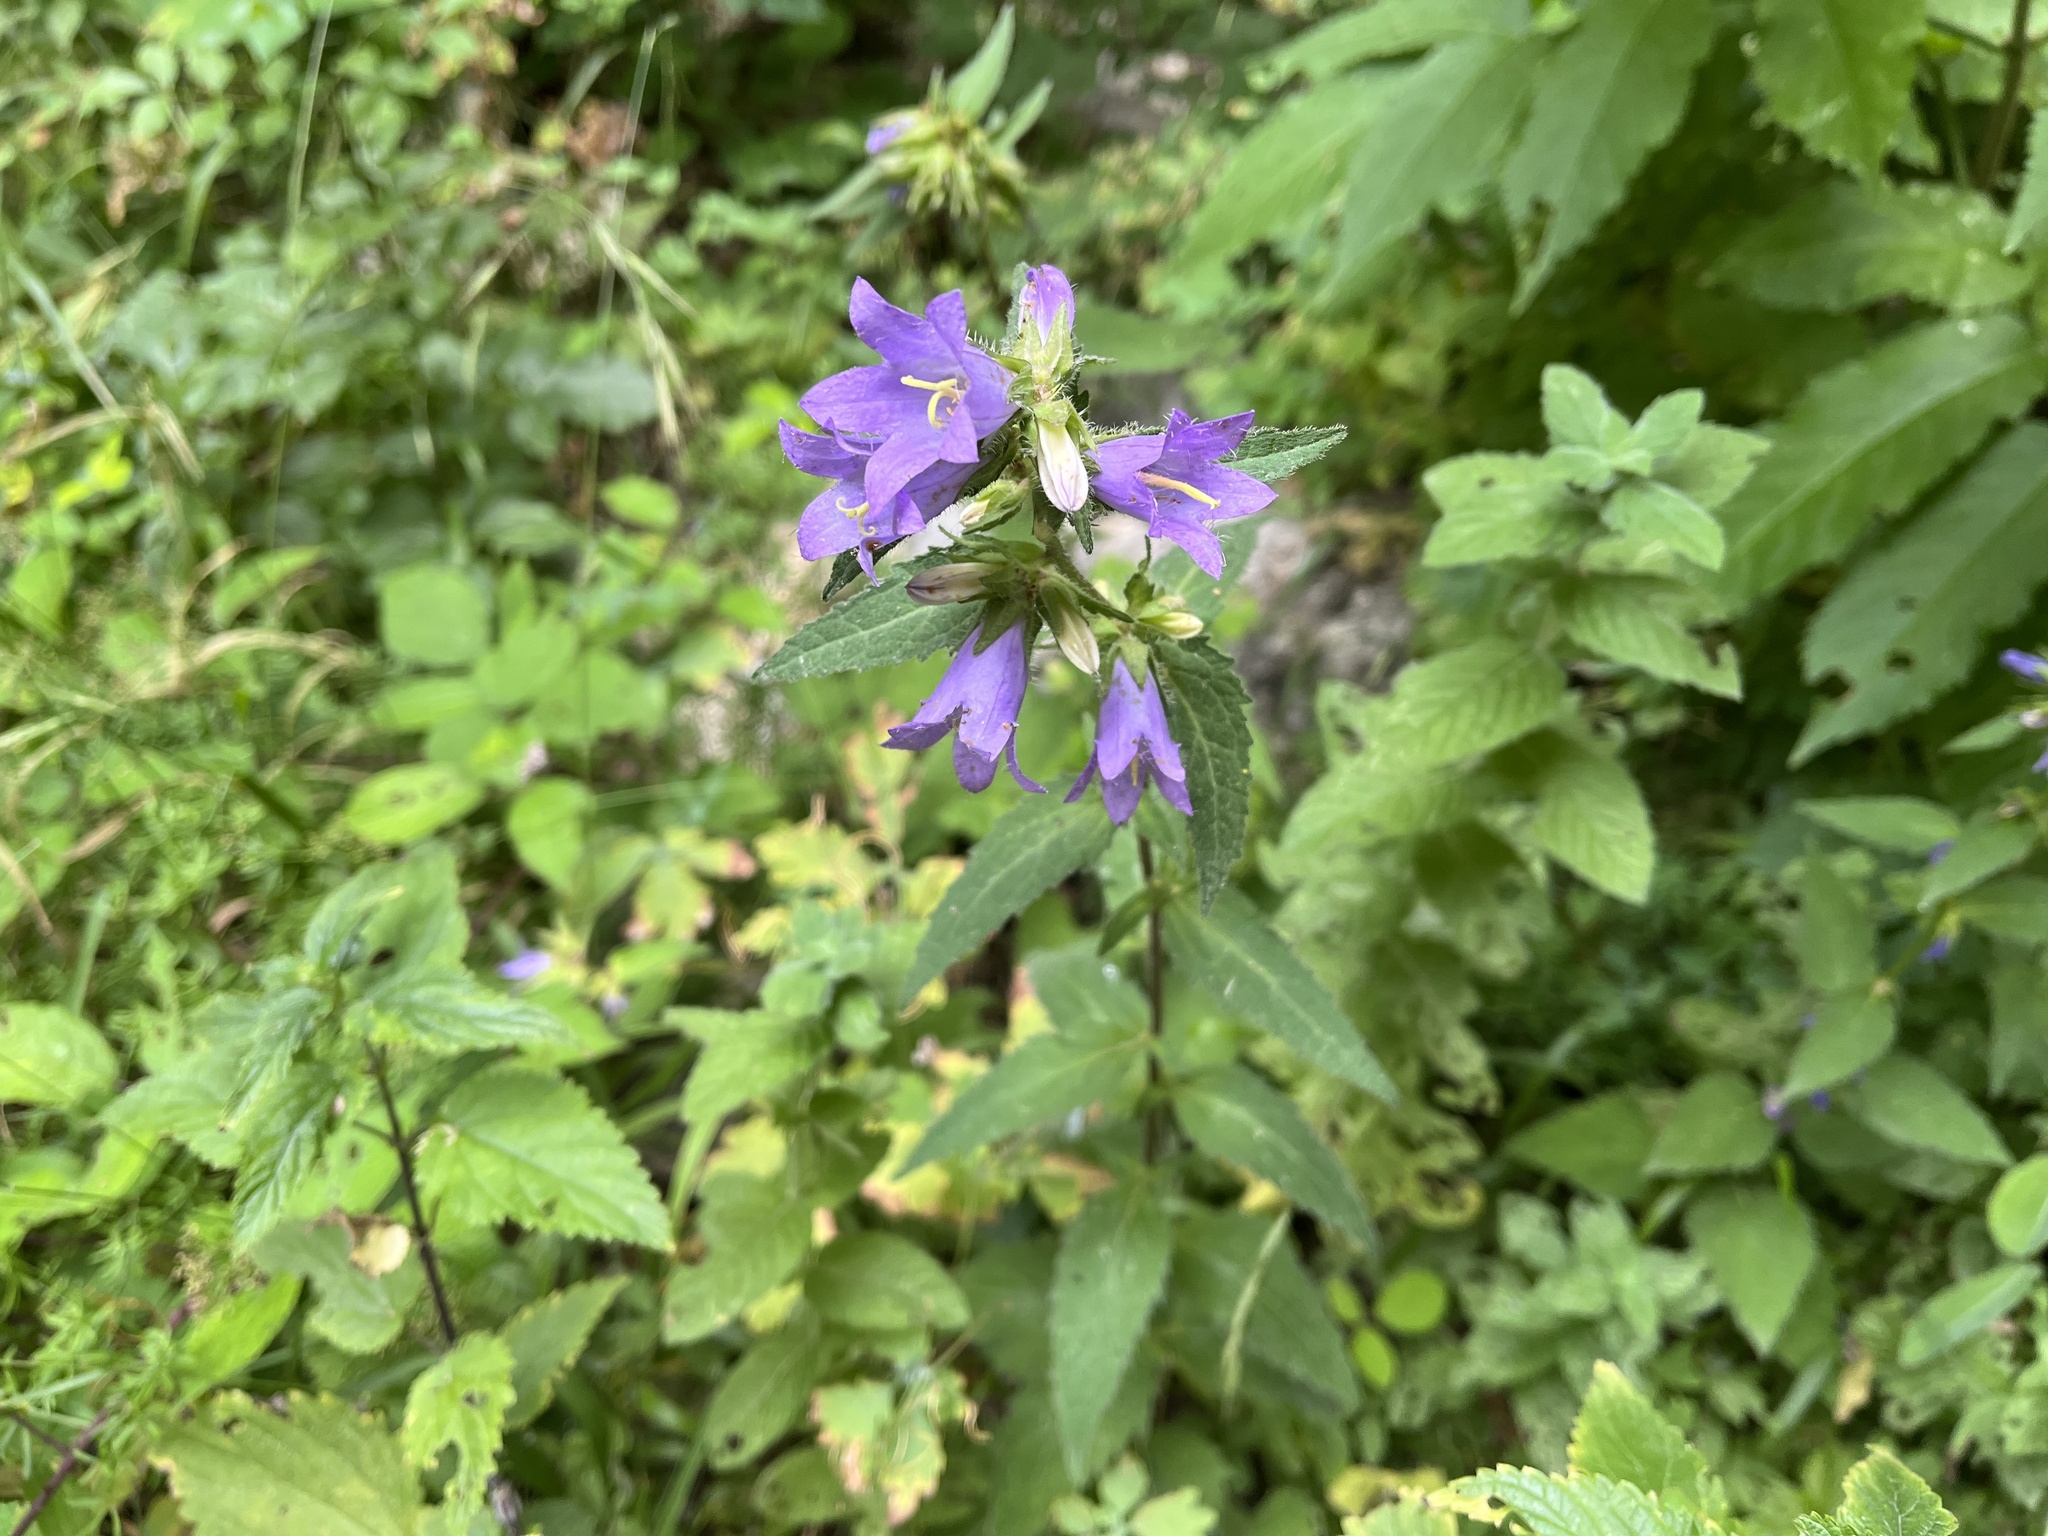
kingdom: Plantae
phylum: Tracheophyta
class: Magnoliopsida
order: Asterales
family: Campanulaceae
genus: Campanula
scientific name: Campanula trachelium
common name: Nettle-leaved bellflower
